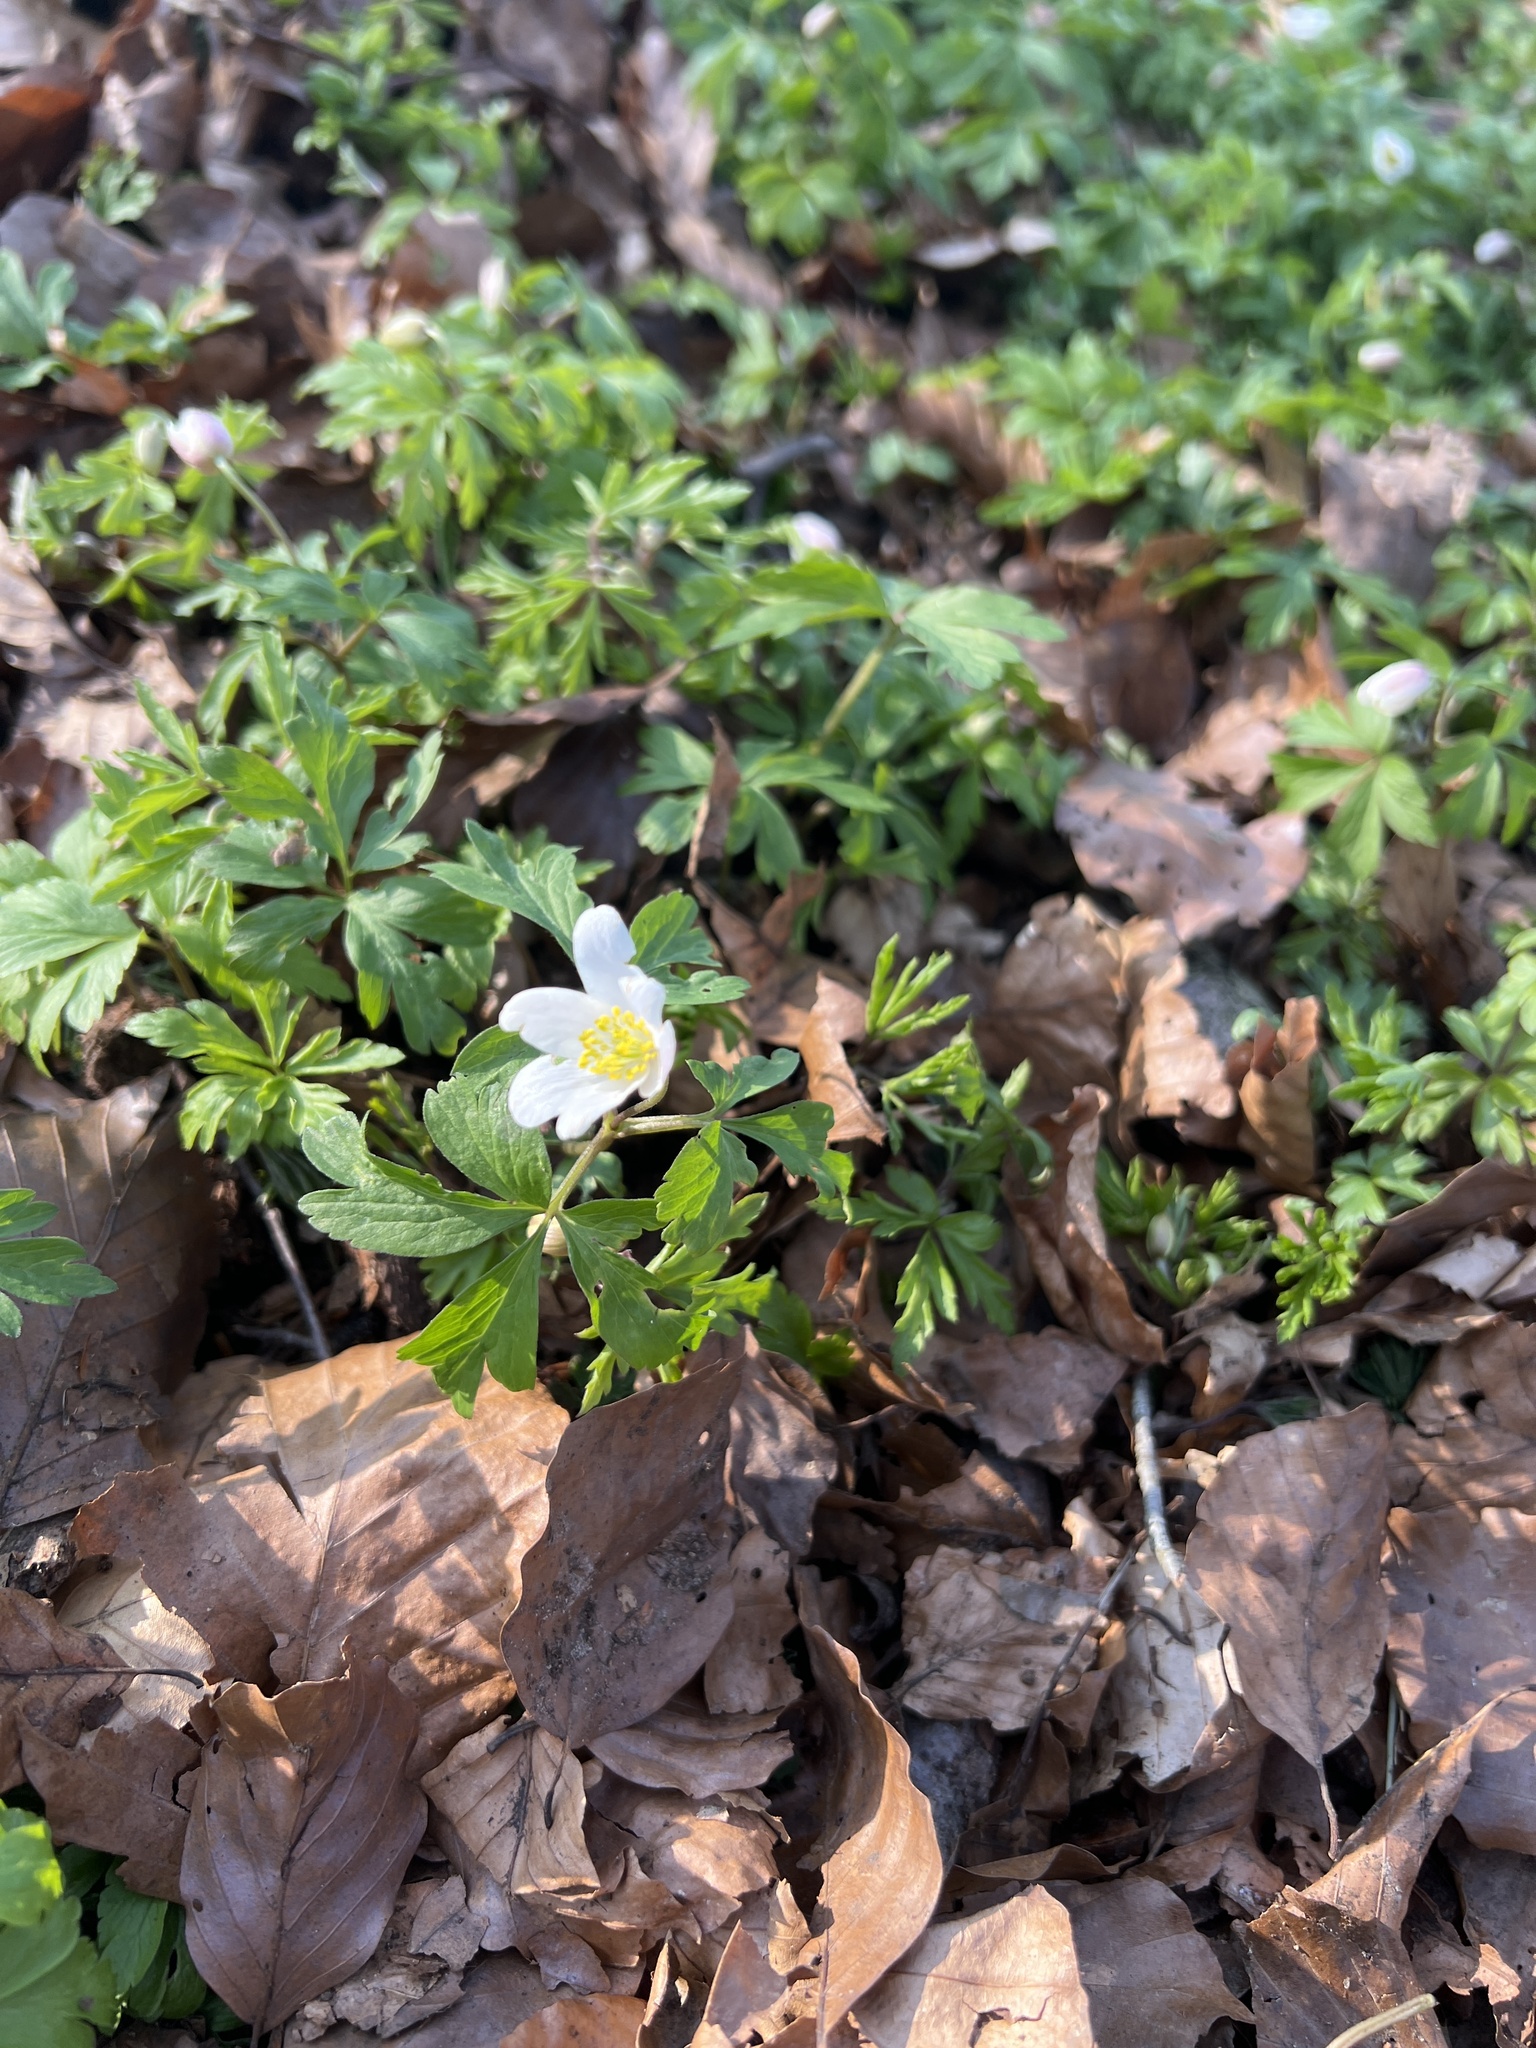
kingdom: Plantae
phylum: Tracheophyta
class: Magnoliopsida
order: Ranunculales
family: Ranunculaceae
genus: Anemone
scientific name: Anemone nemorosa
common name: Wood anemone
